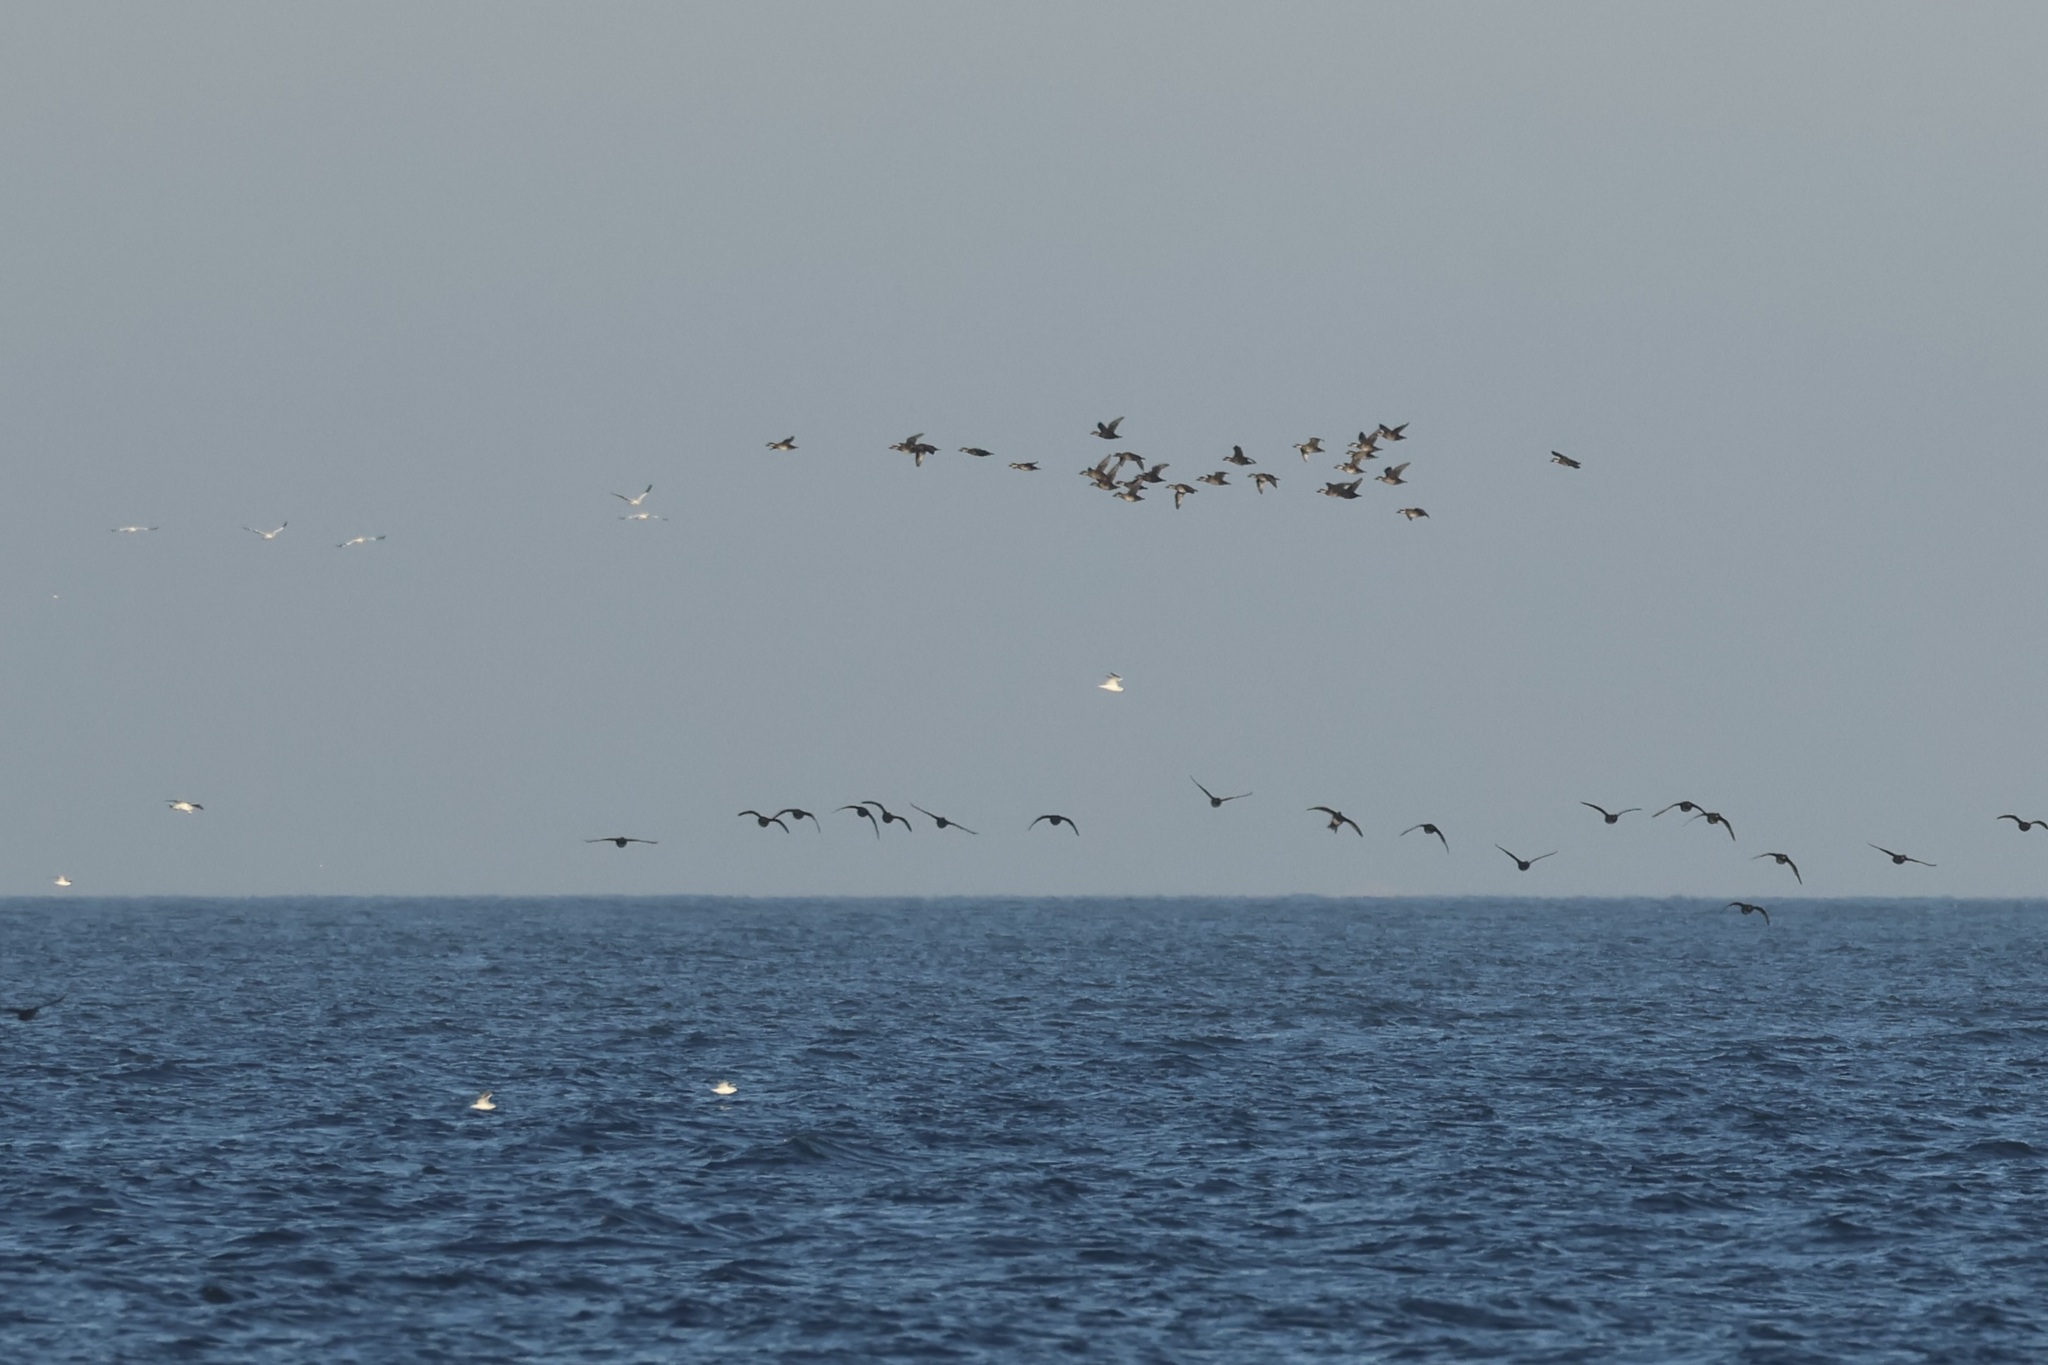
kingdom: Animalia
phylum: Chordata
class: Aves
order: Anseriformes
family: Anatidae
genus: Melanitta
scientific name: Melanitta americana
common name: Black scoter
